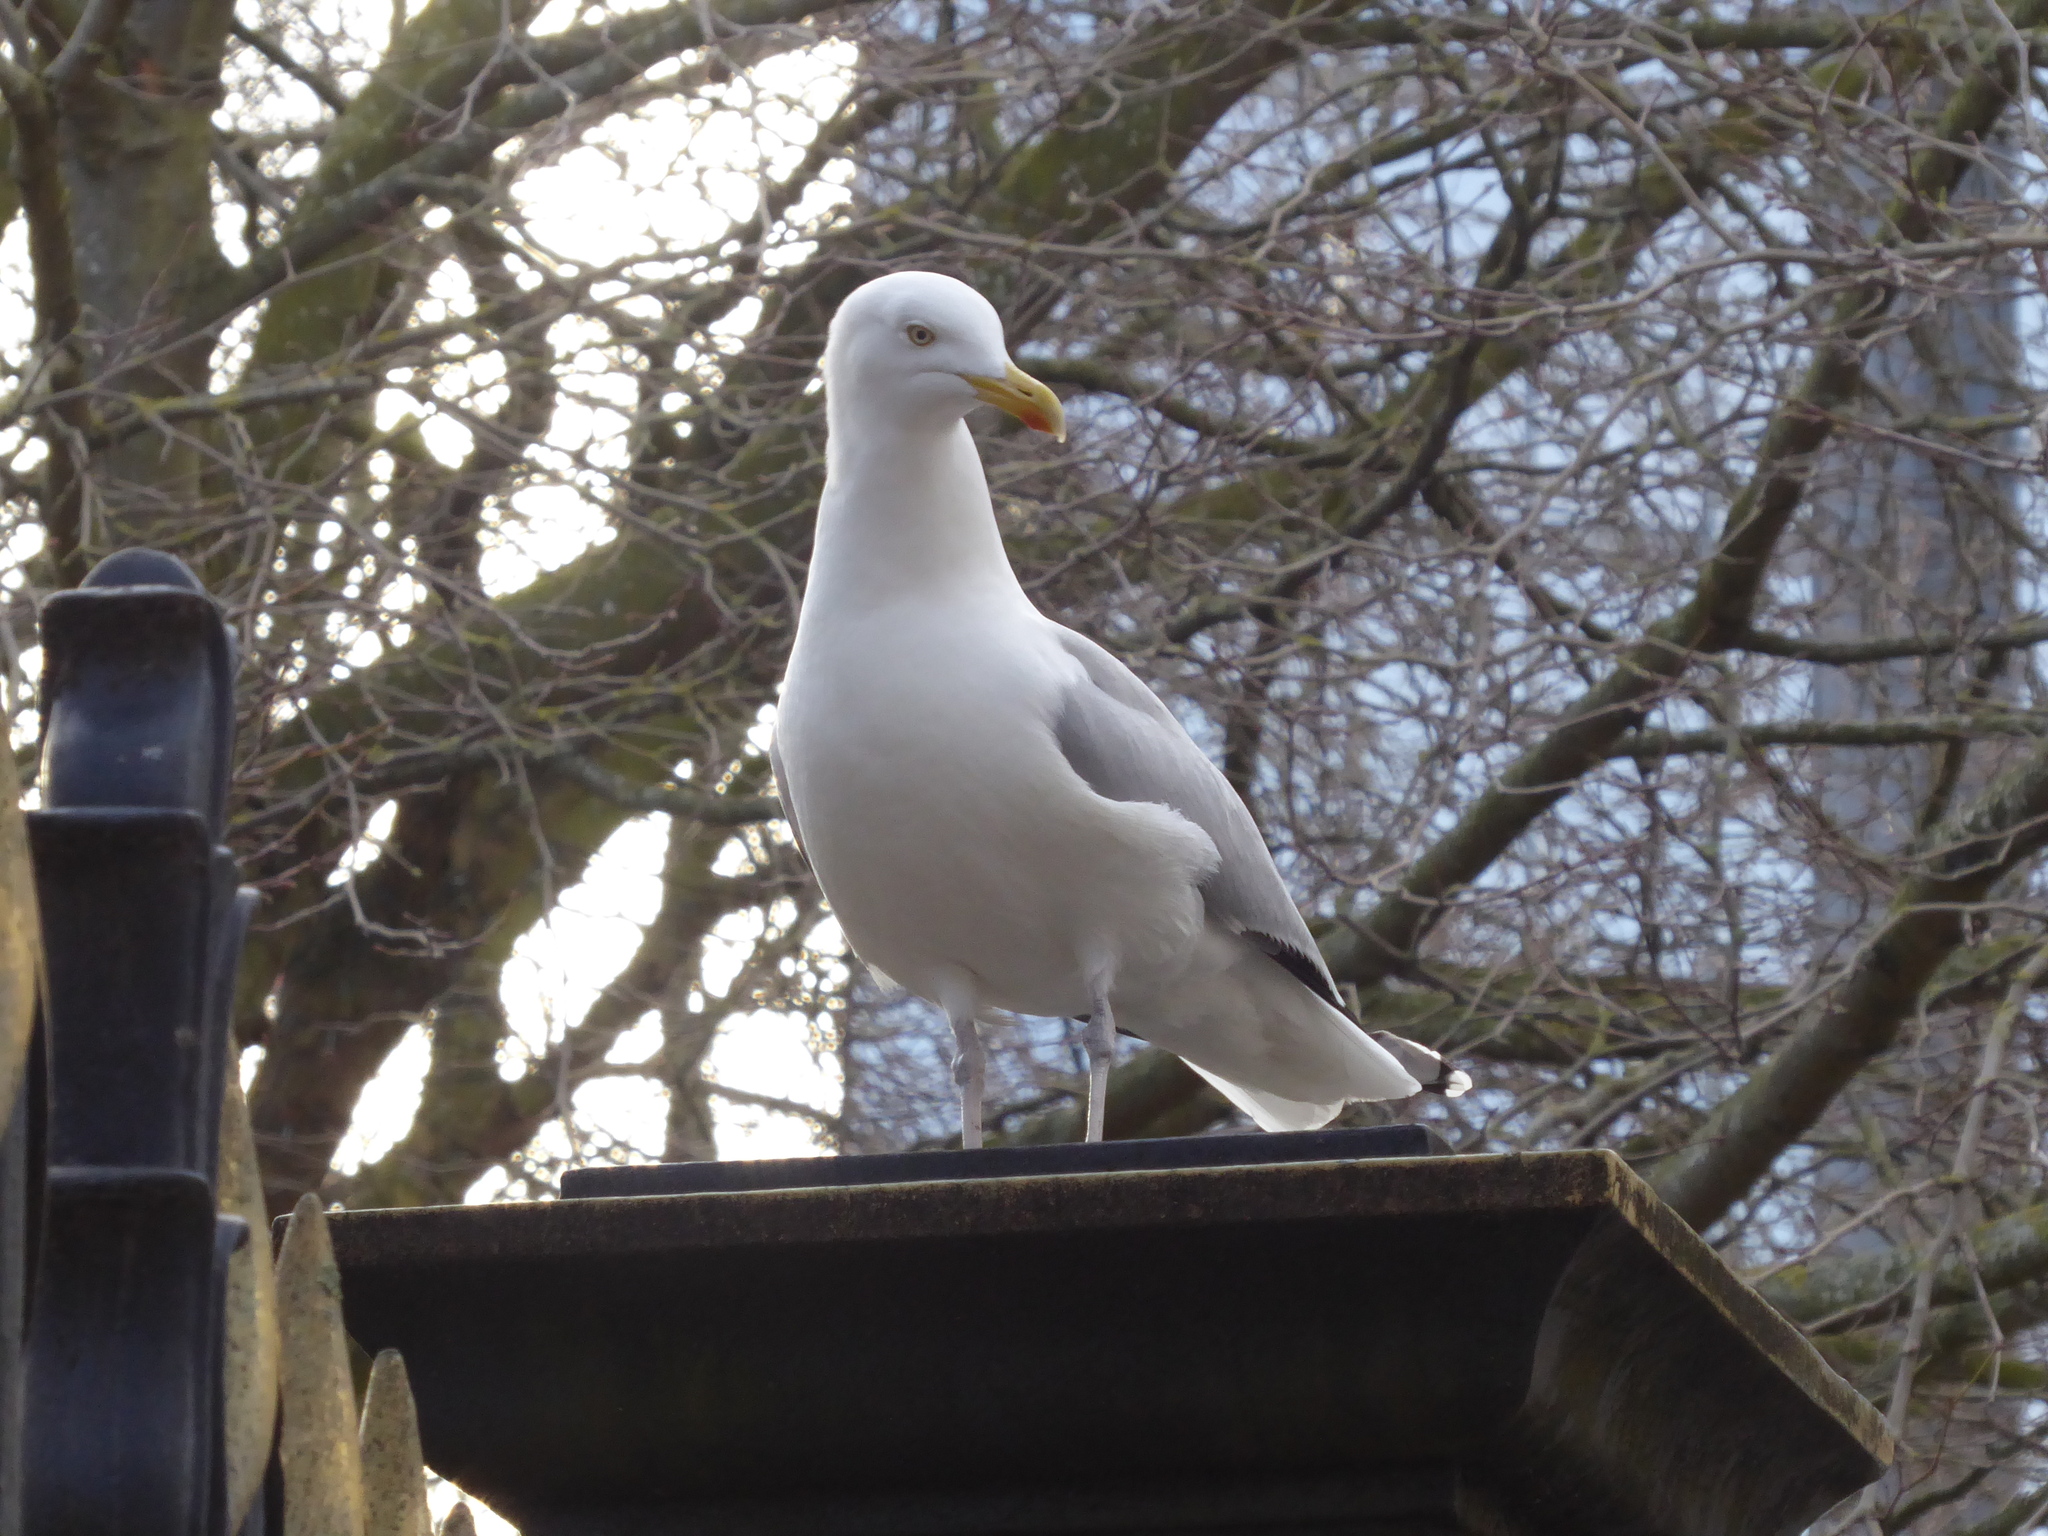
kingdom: Animalia
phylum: Chordata
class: Aves
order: Charadriiformes
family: Laridae
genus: Larus
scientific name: Larus argentatus
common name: Herring gull
